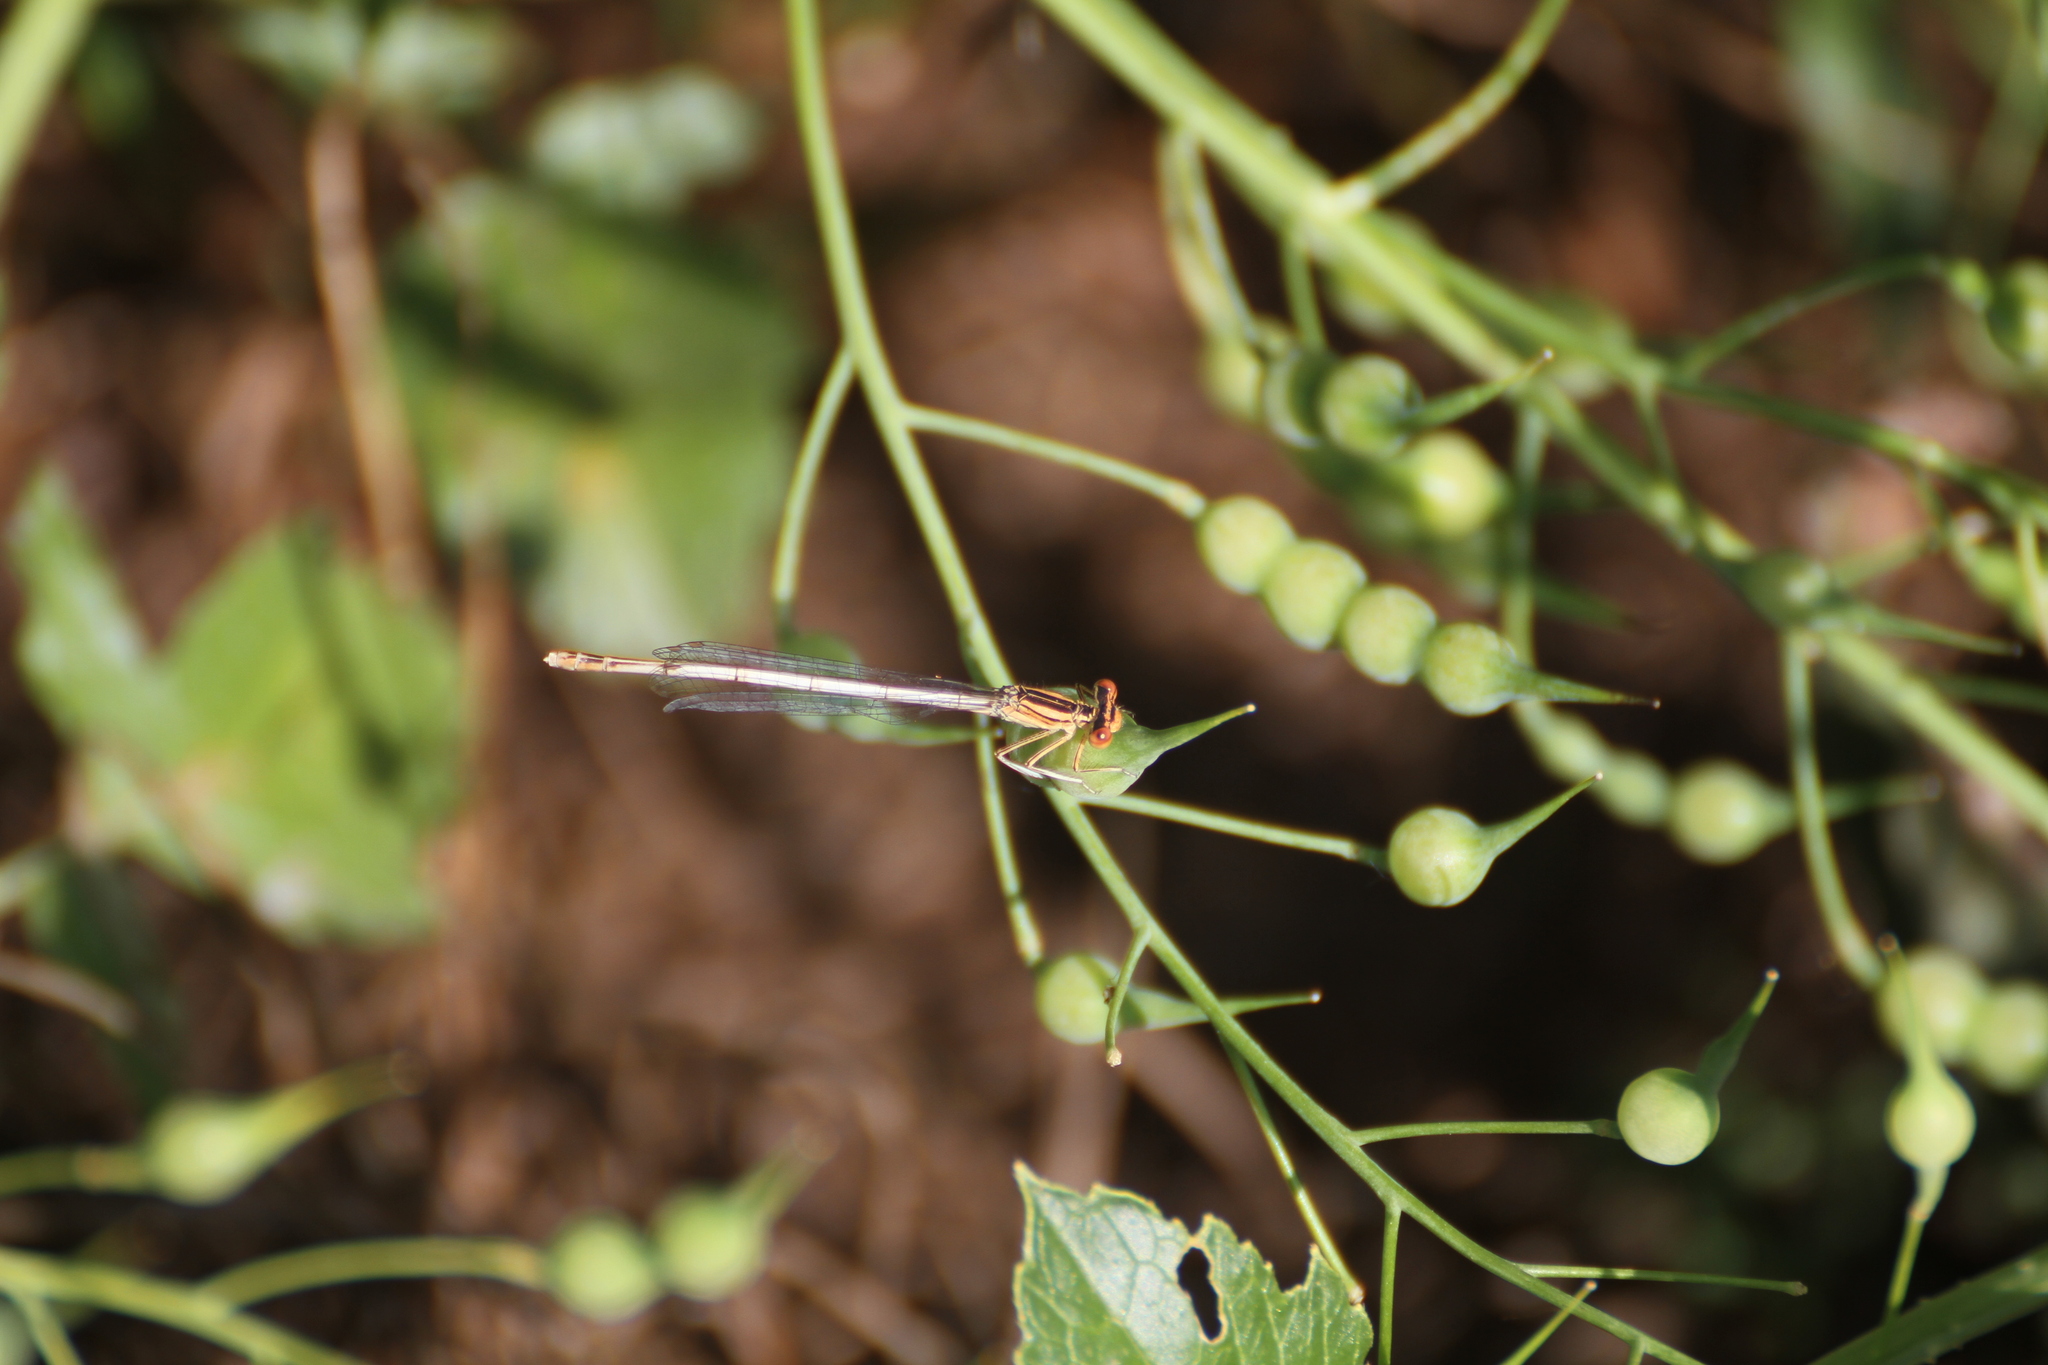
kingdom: Animalia
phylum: Arthropoda
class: Insecta
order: Odonata
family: Platycnemididae
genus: Platycnemis
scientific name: Platycnemis latipes
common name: White featherleg
